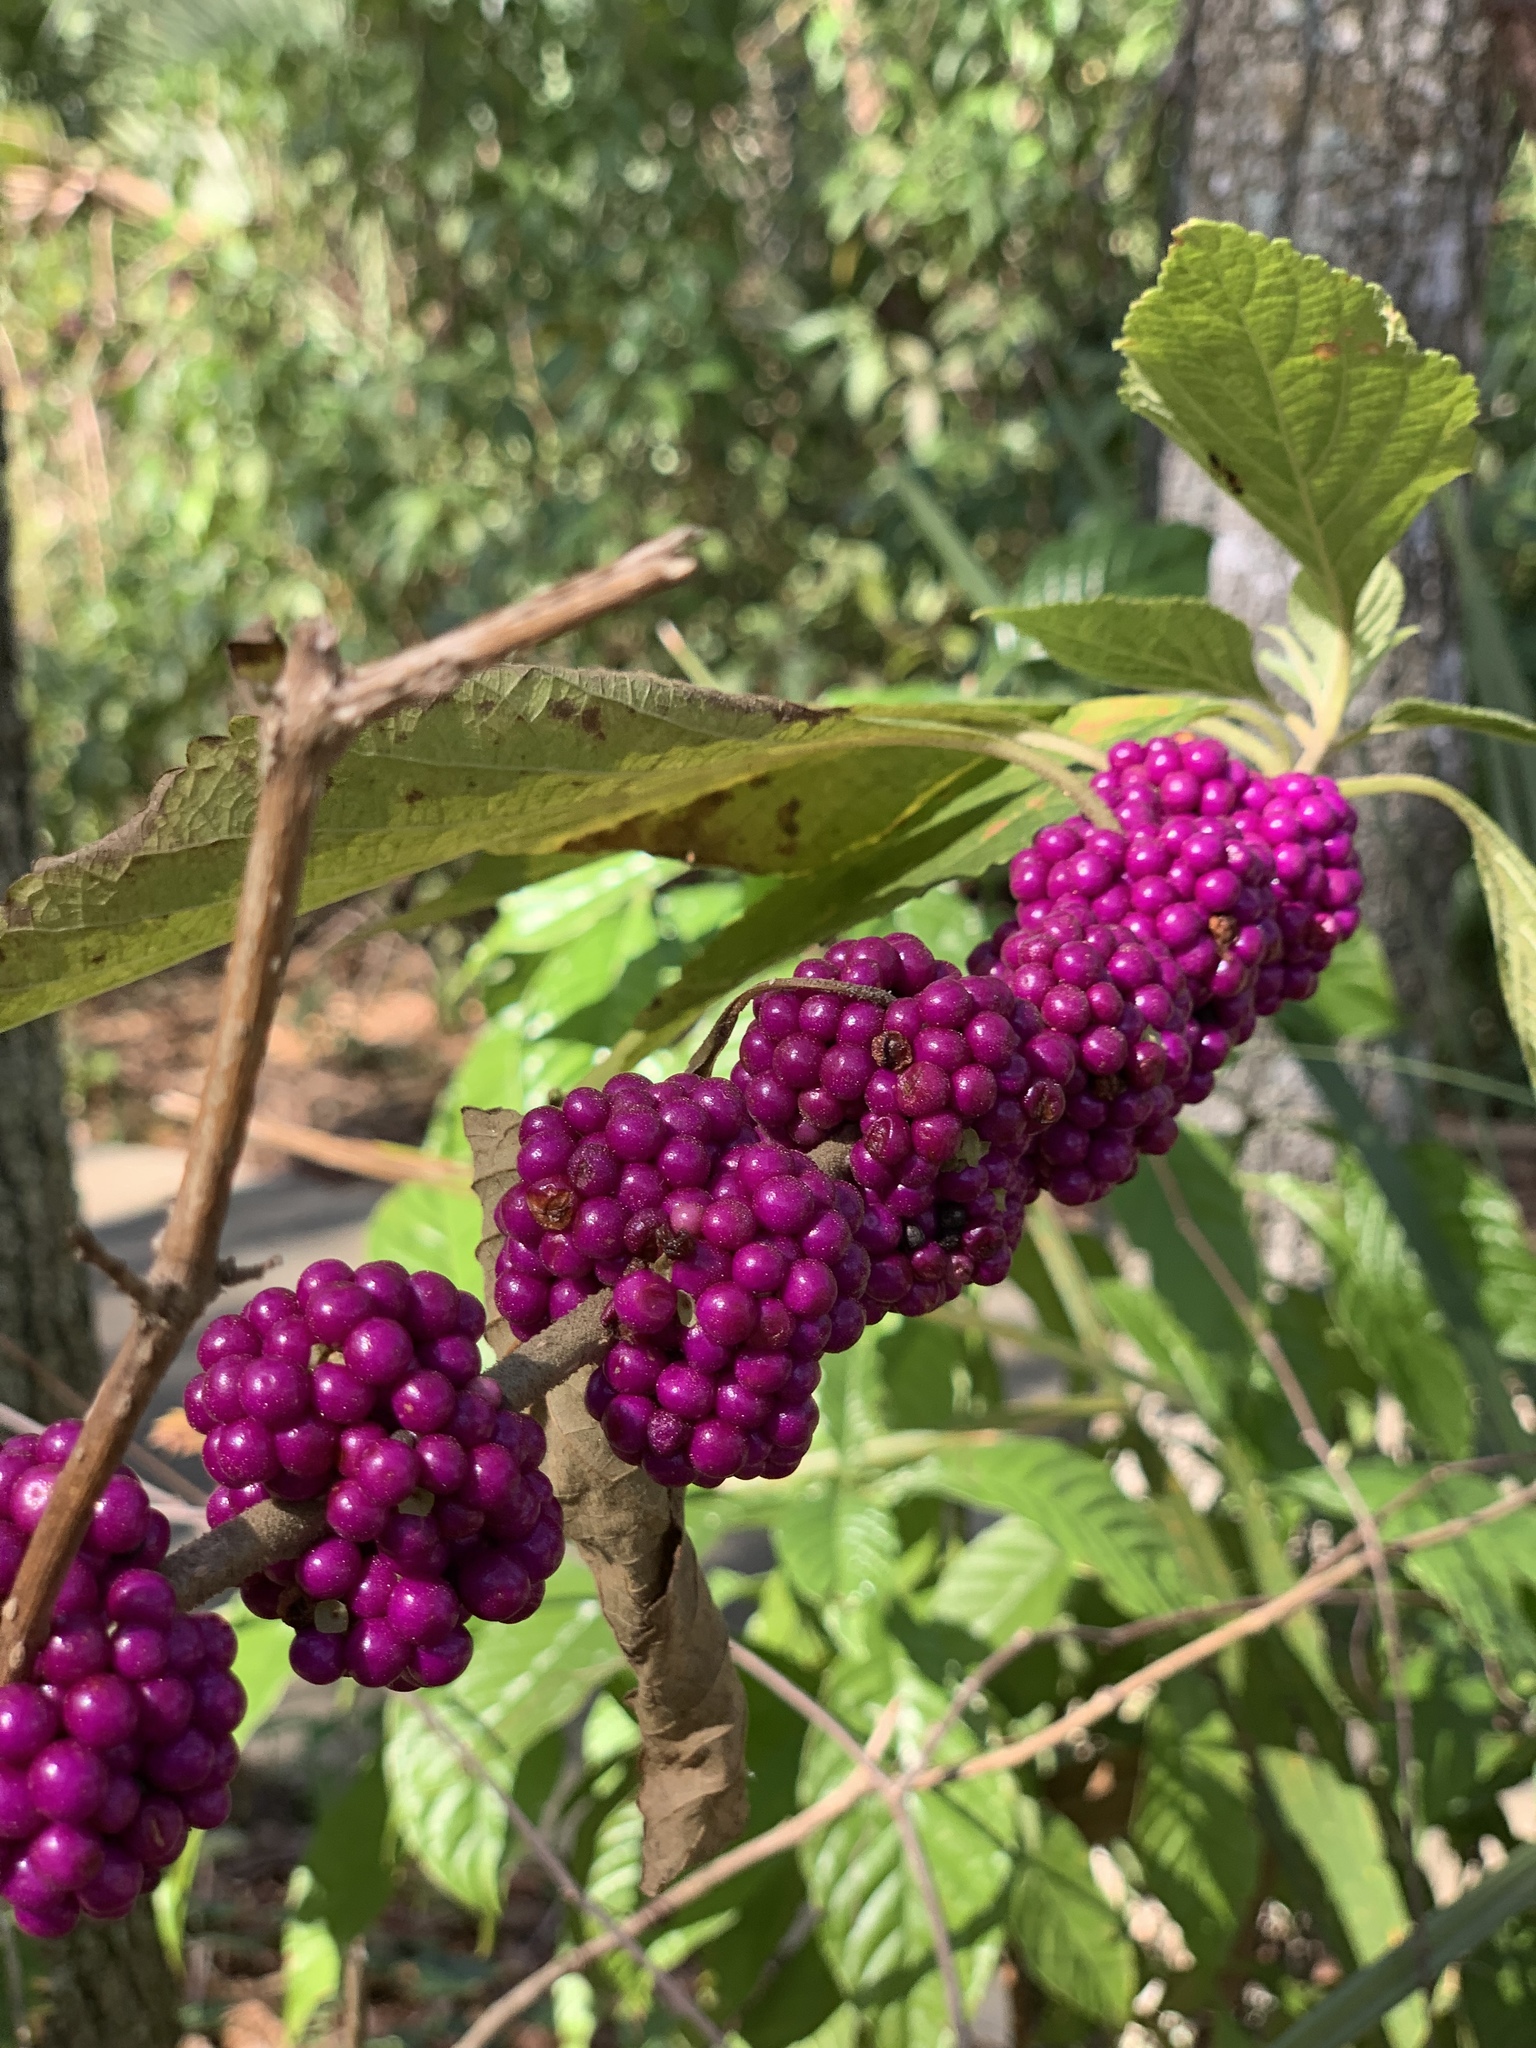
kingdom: Plantae
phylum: Tracheophyta
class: Magnoliopsida
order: Lamiales
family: Lamiaceae
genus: Callicarpa
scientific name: Callicarpa americana
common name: American beautyberry
